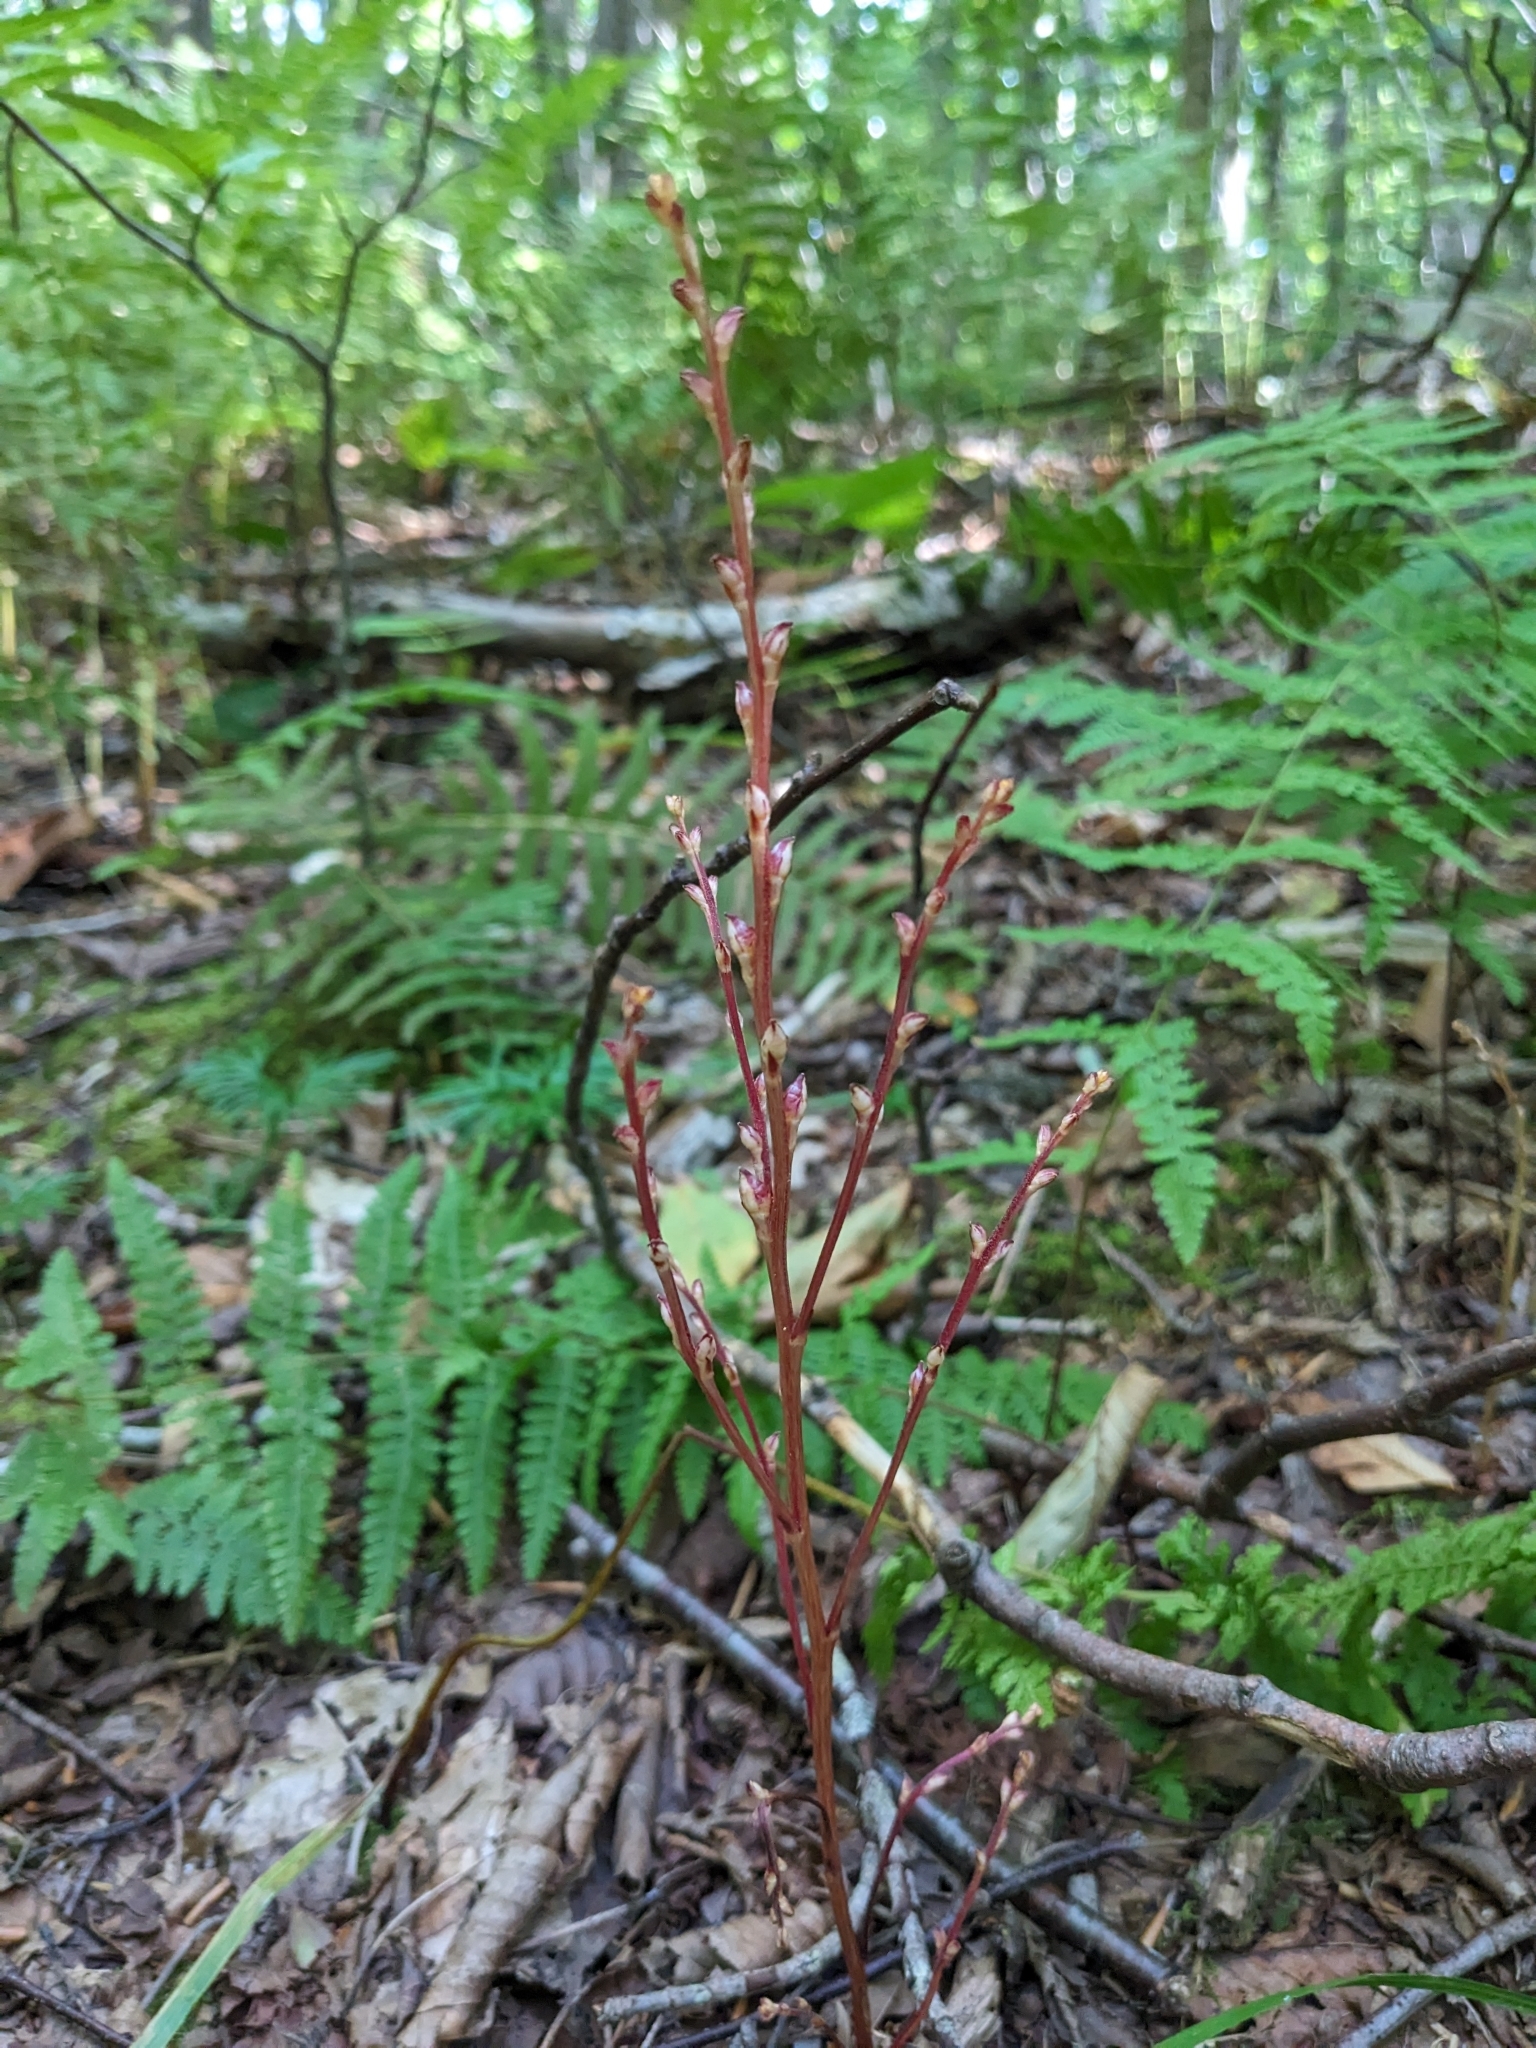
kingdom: Plantae
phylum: Tracheophyta
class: Magnoliopsida
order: Lamiales
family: Orobanchaceae
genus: Epifagus
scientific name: Epifagus virginiana
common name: Beechdrops
